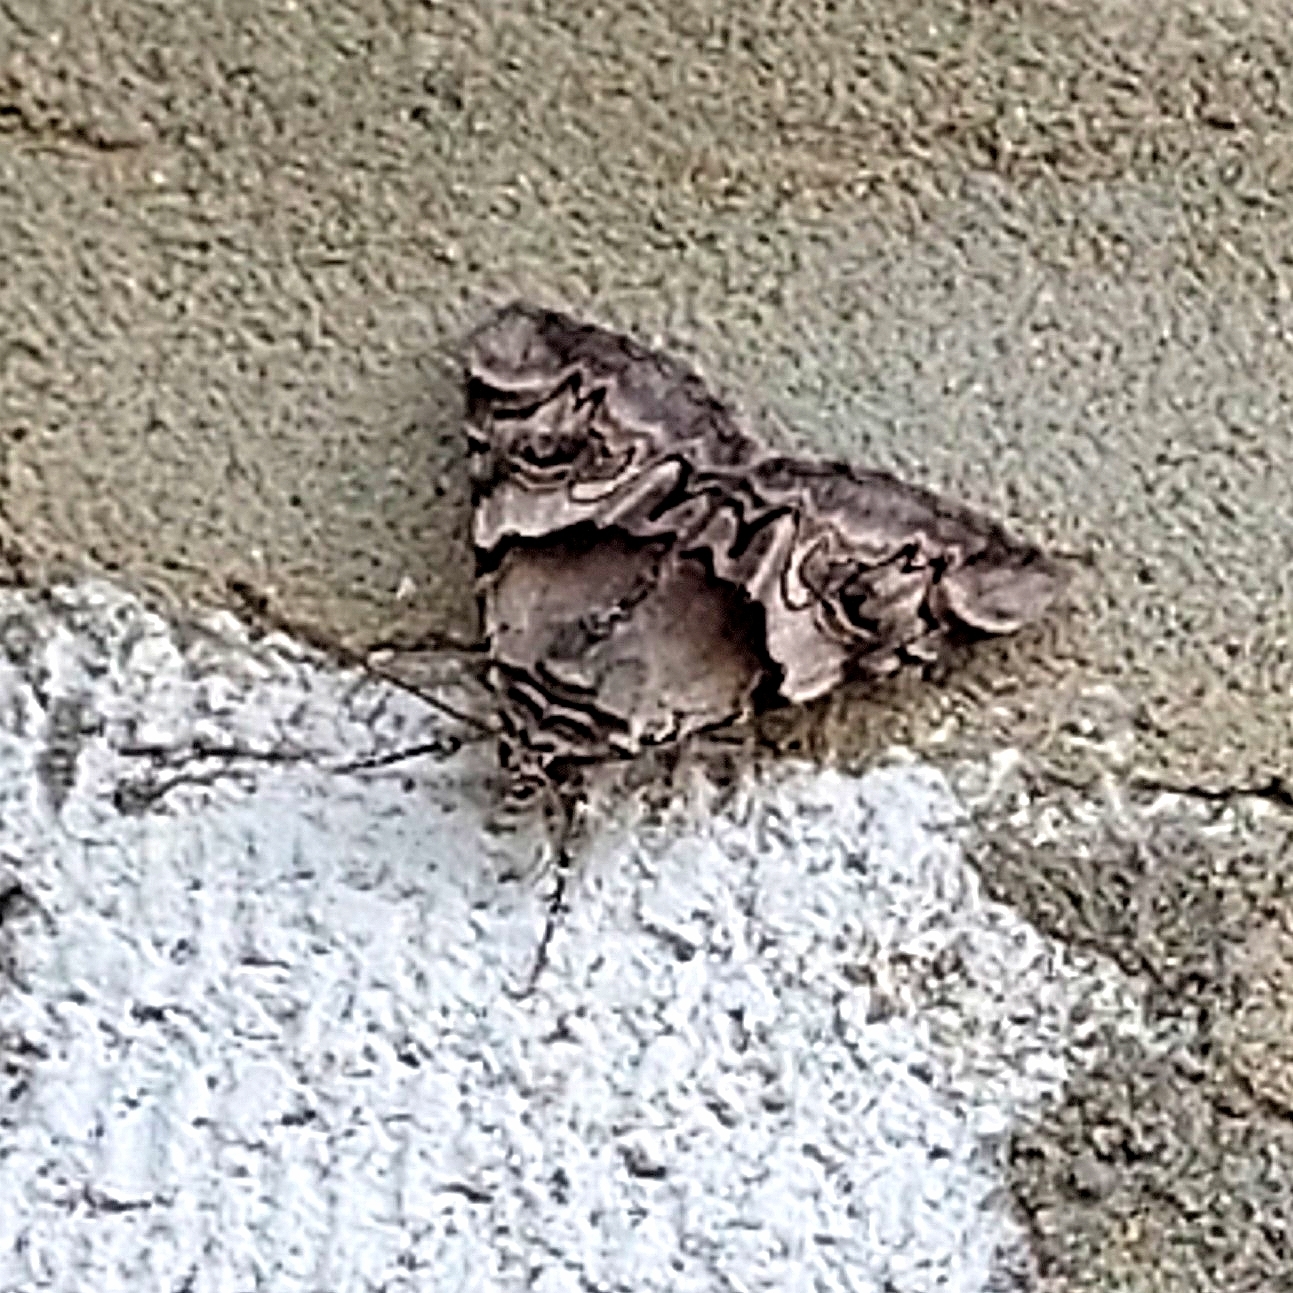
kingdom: Animalia
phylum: Arthropoda
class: Insecta
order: Lepidoptera
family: Erebidae
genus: Catocala
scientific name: Catocala fulminea
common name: Yellow bands underwing
